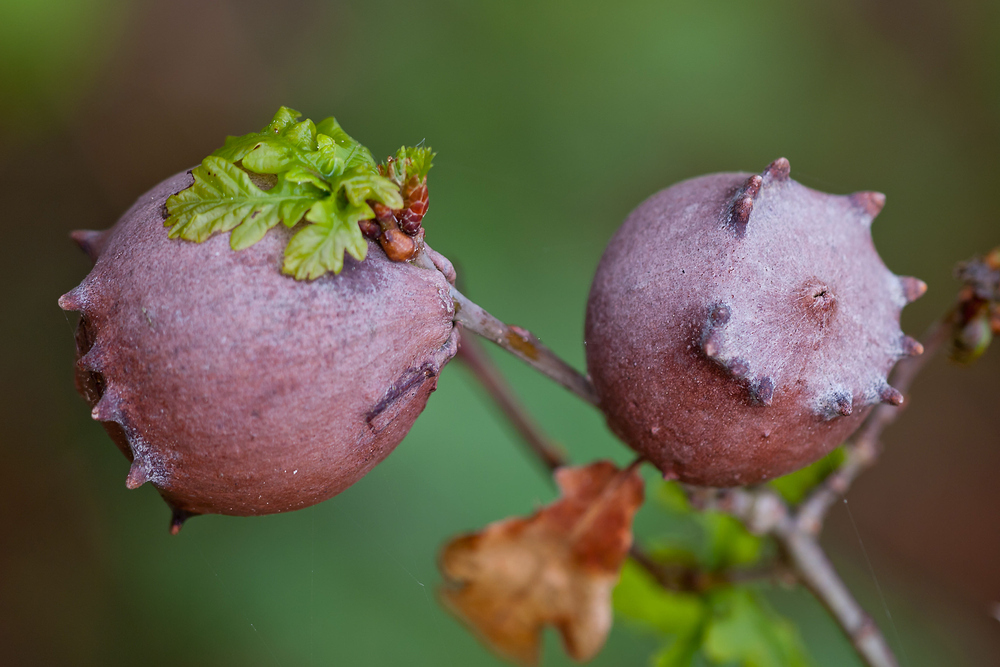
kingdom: Animalia
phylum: Arthropoda
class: Insecta
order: Hymenoptera
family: Cynipidae
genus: Andricus
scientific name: Andricus quercustozae
